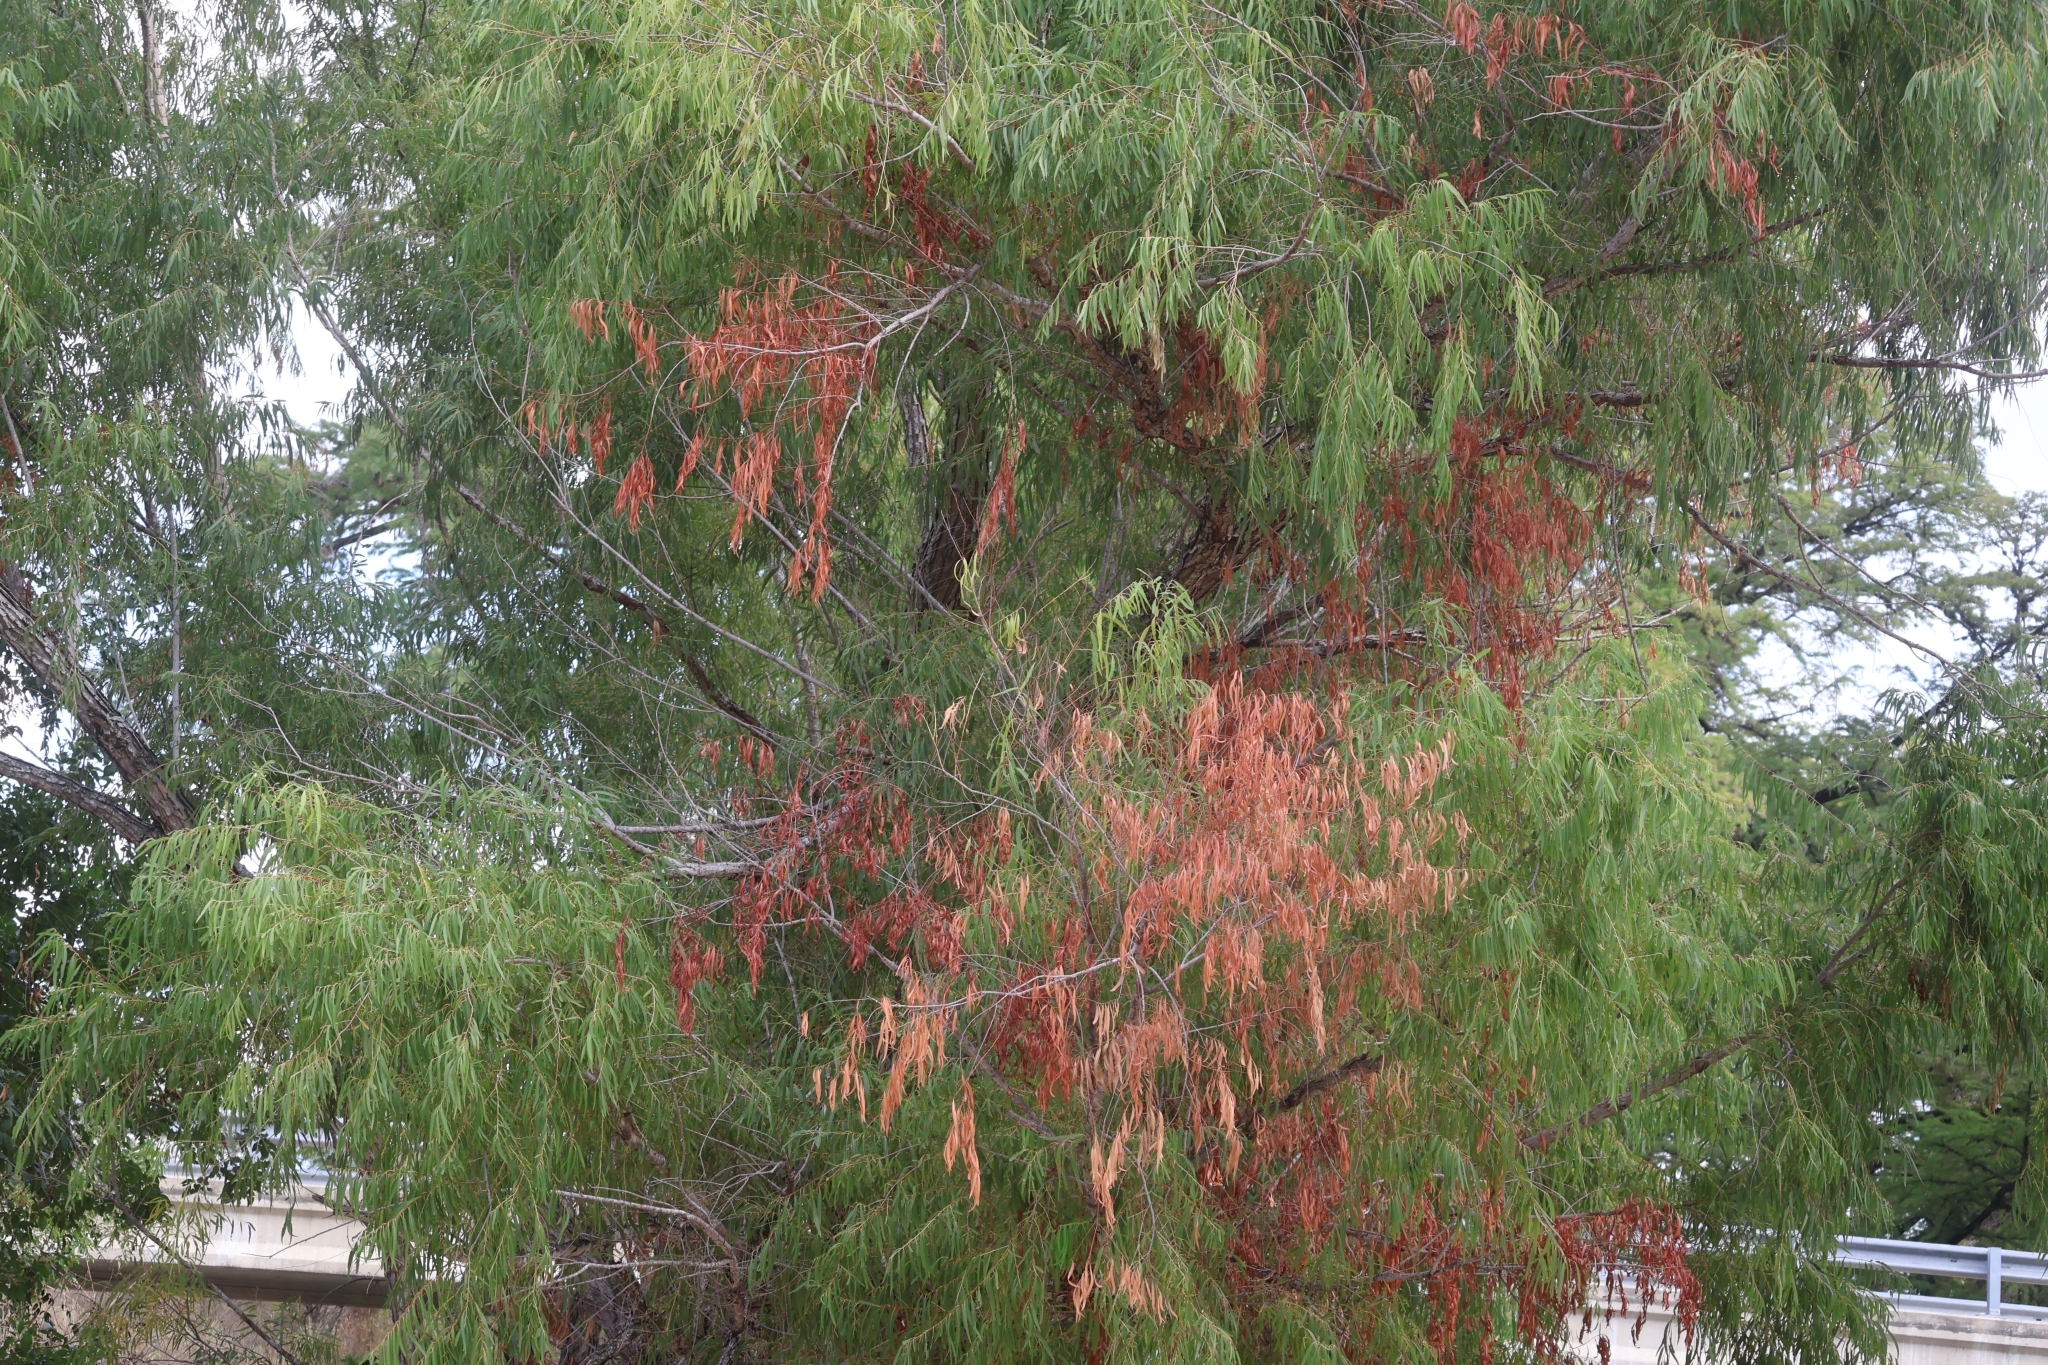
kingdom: Plantae
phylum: Tracheophyta
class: Magnoliopsida
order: Malpighiales
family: Salicaceae
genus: Salix
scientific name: Salix nigra
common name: Black willow
